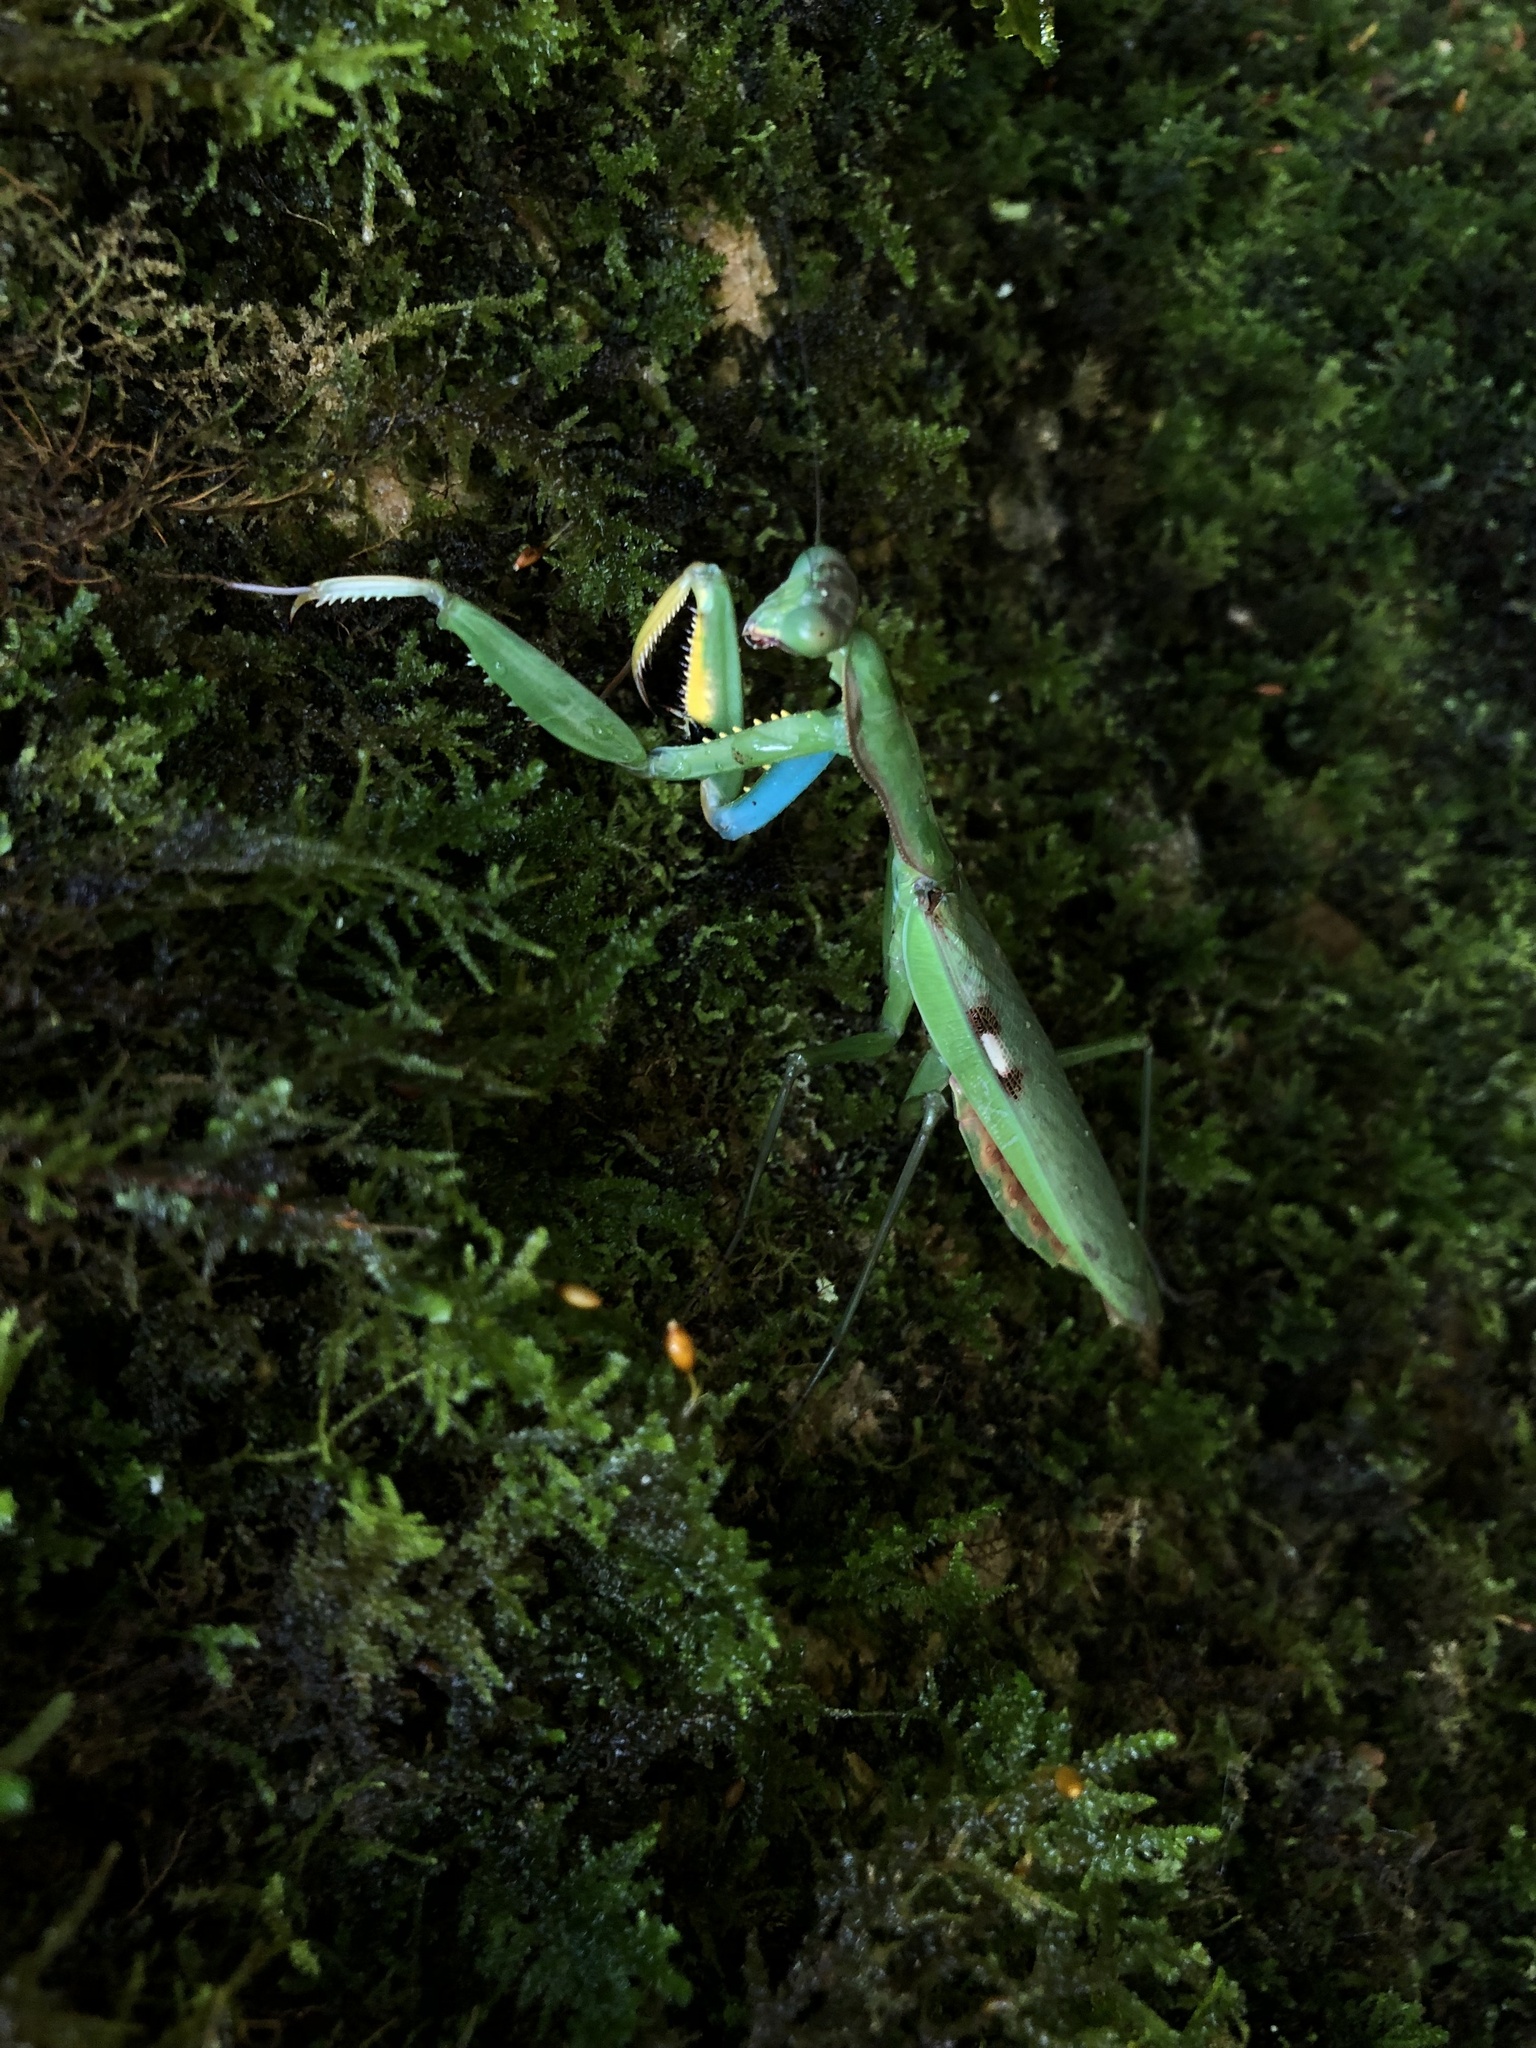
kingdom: Animalia
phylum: Arthropoda
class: Insecta
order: Mantodea
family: Mantidae
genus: Polyspilota
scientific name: Polyspilota aeruginosa
